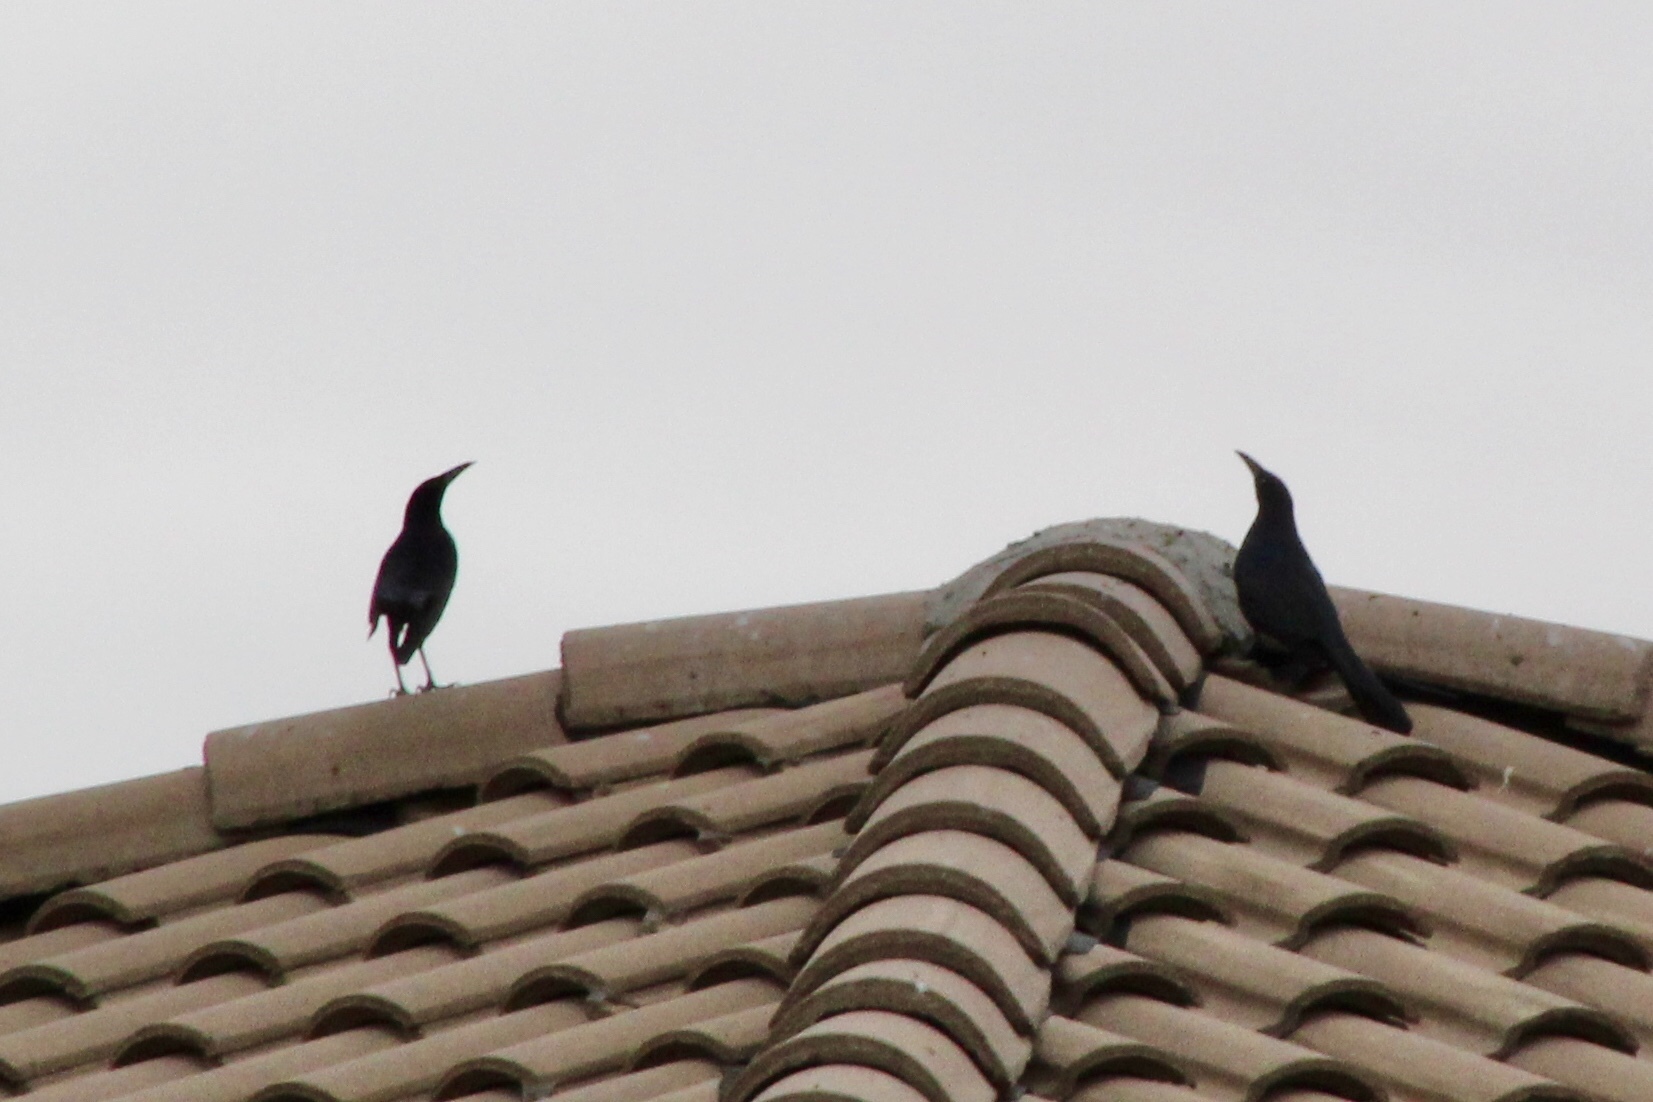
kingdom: Animalia
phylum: Chordata
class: Aves
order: Passeriformes
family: Icteridae
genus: Quiscalus
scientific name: Quiscalus mexicanus
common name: Great-tailed grackle
